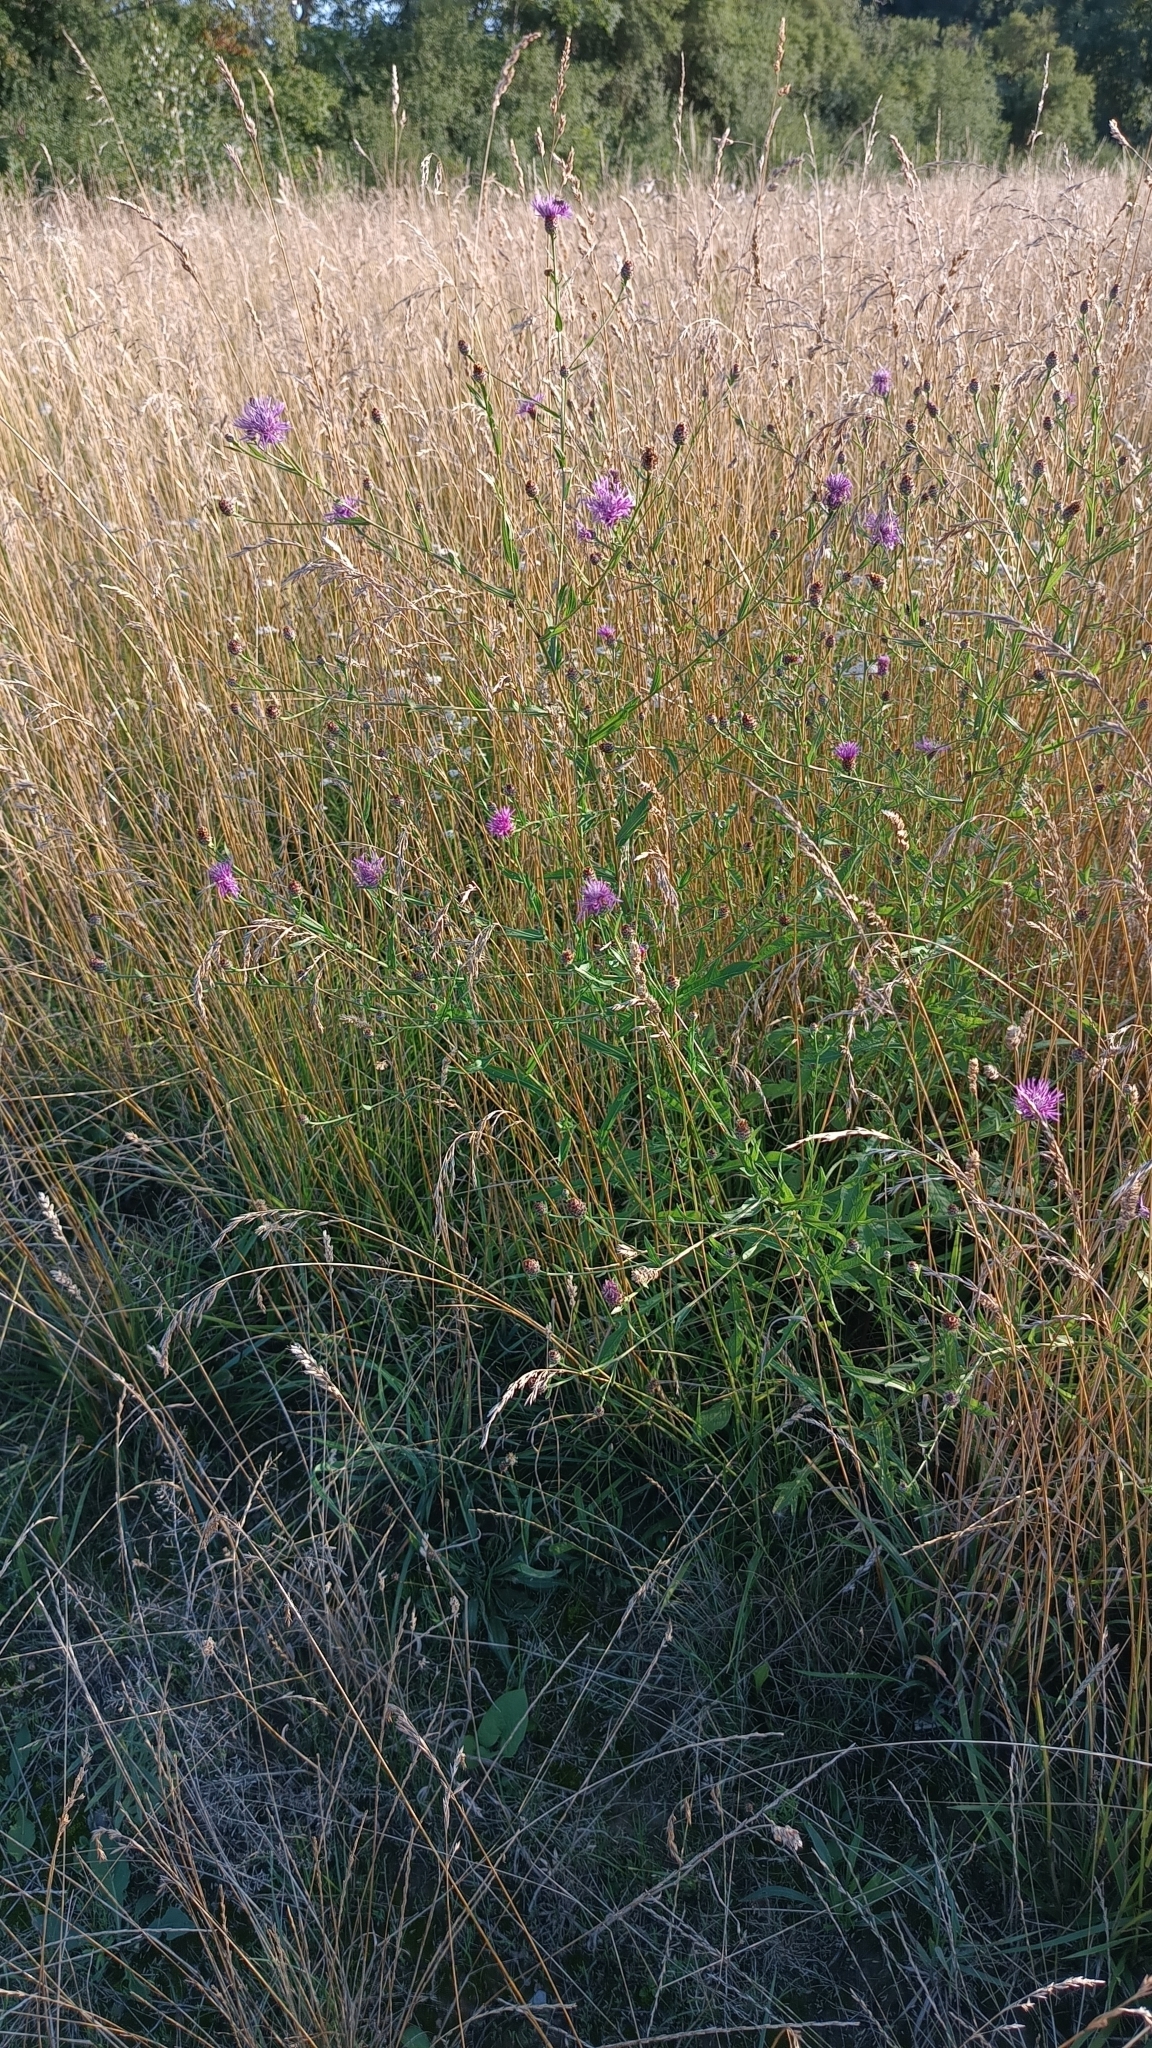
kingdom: Plantae
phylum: Tracheophyta
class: Magnoliopsida
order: Asterales
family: Asteraceae
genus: Centaurea
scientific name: Centaurea fleischeri
